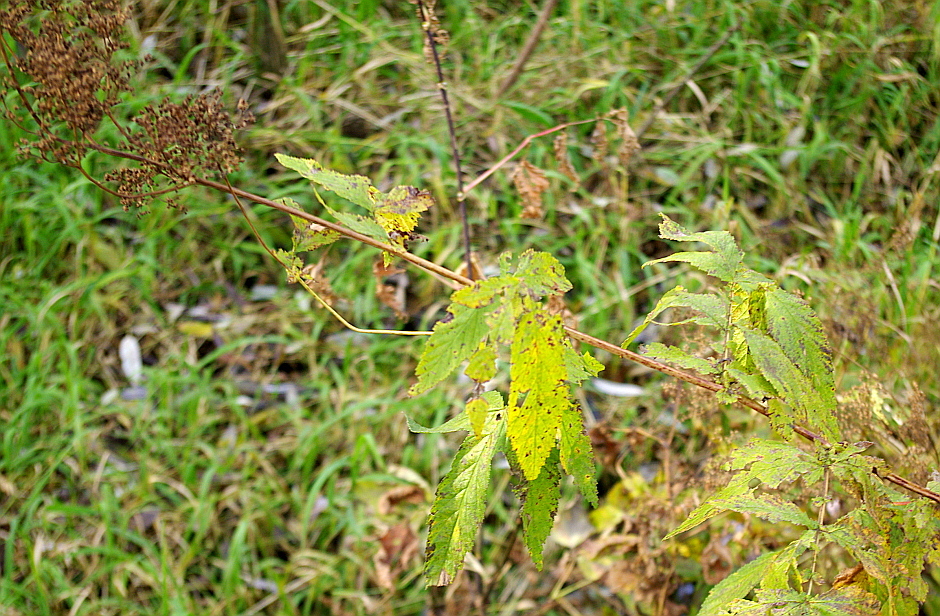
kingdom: Plantae
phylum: Tracheophyta
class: Magnoliopsida
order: Rosales
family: Rosaceae
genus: Filipendula
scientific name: Filipendula ulmaria
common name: Meadowsweet
